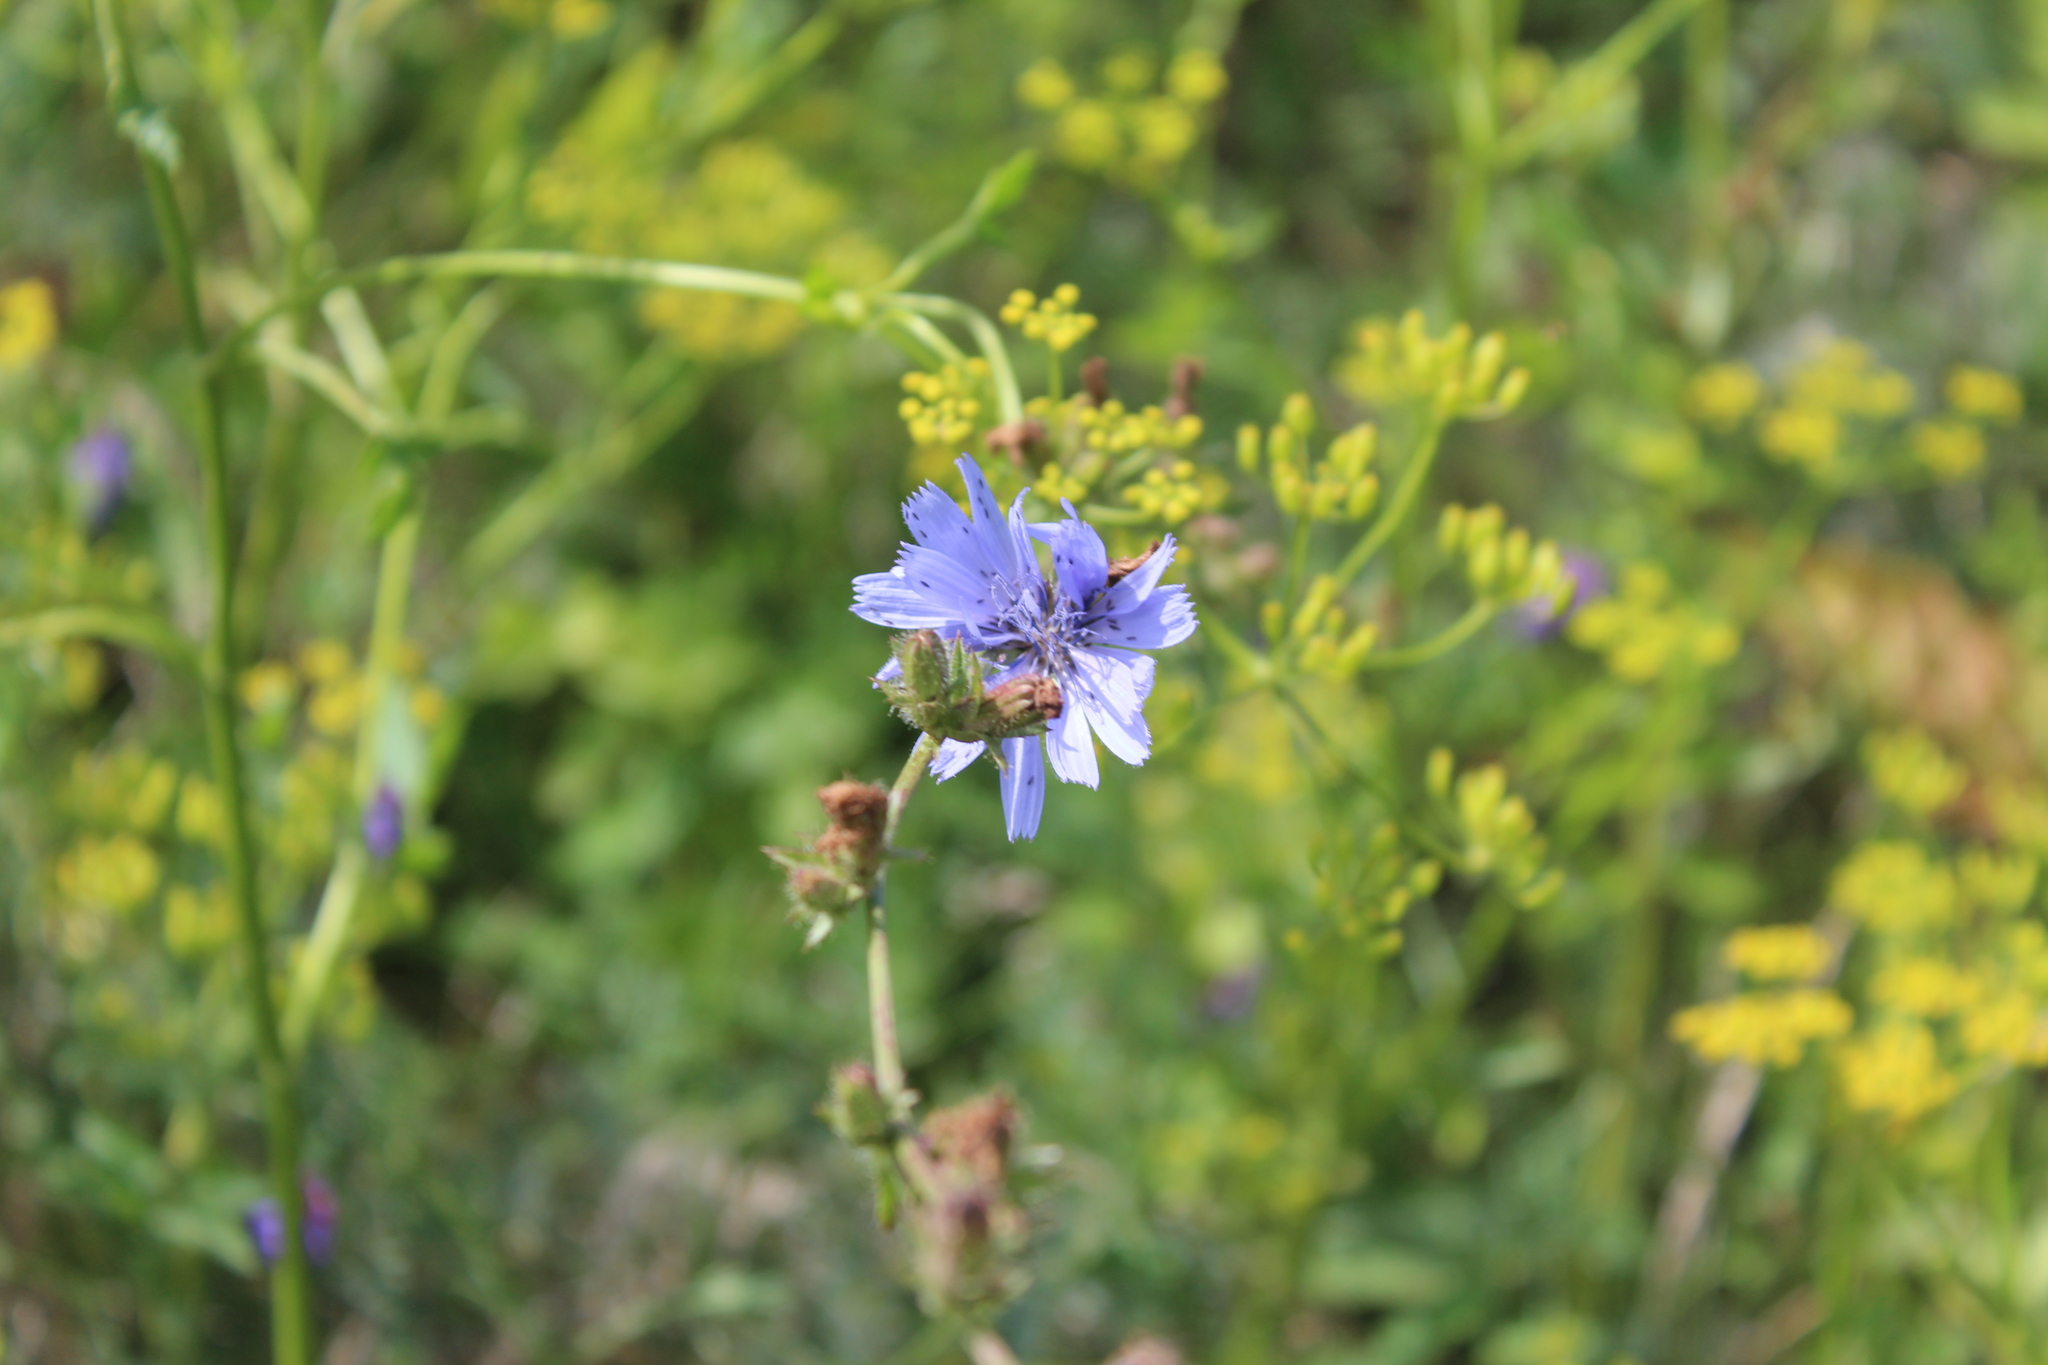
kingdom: Plantae
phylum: Tracheophyta
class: Magnoliopsida
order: Asterales
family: Asteraceae
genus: Cichorium
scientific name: Cichorium intybus
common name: Chicory
